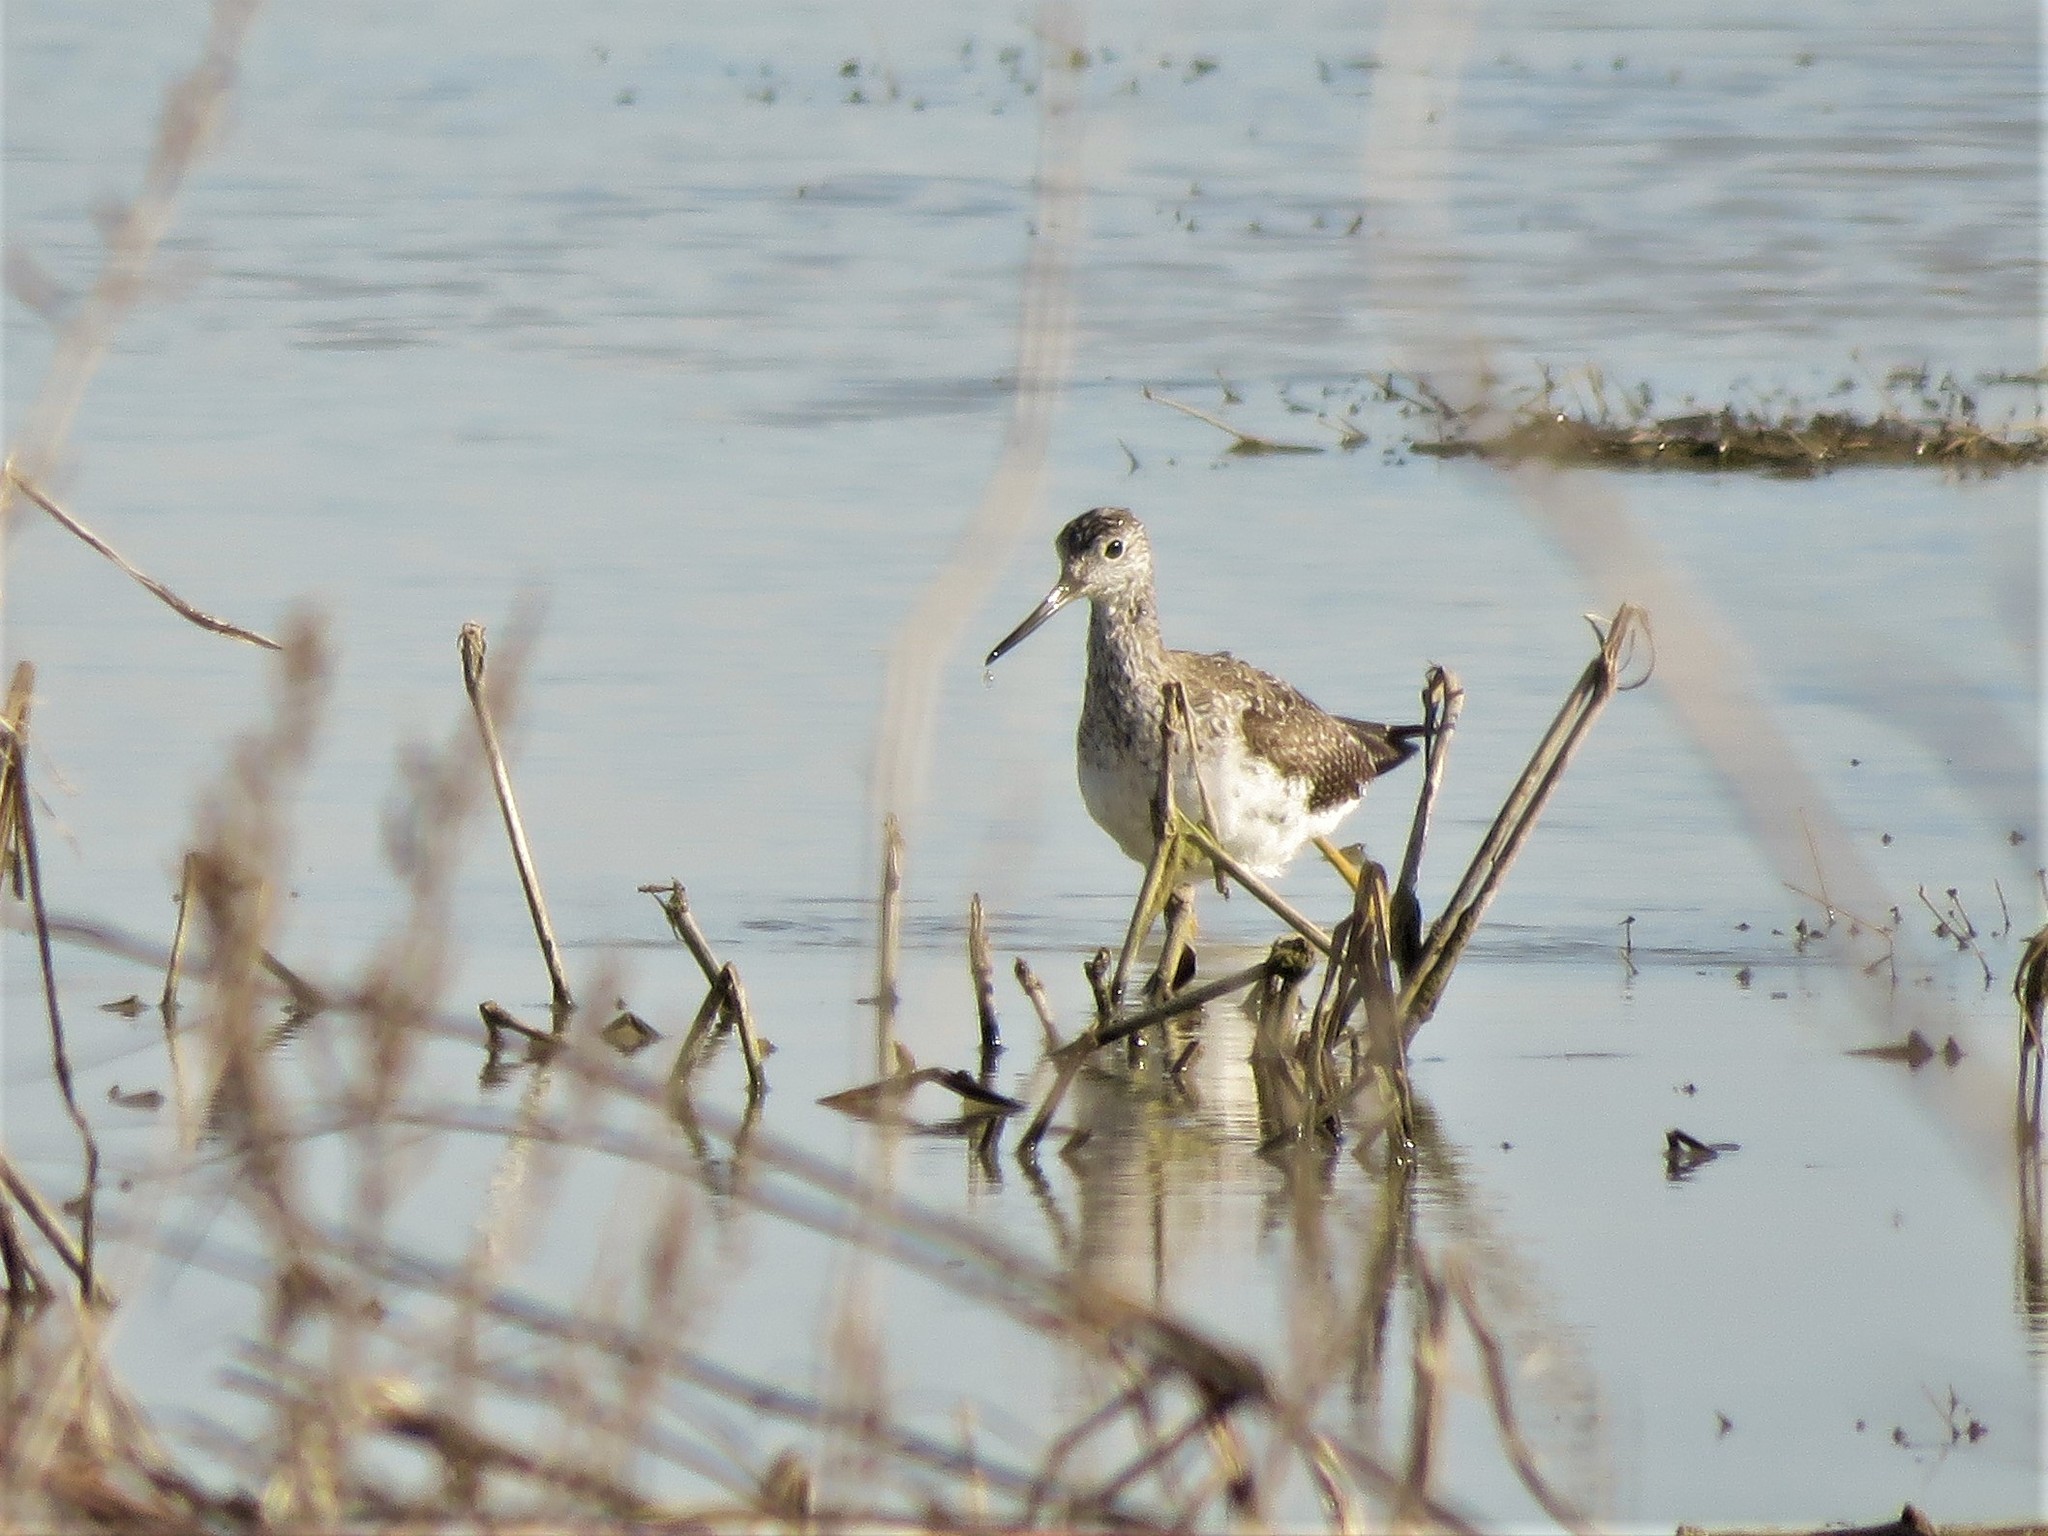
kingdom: Animalia
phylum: Chordata
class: Aves
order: Charadriiformes
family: Scolopacidae
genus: Tringa
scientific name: Tringa melanoleuca
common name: Greater yellowlegs
